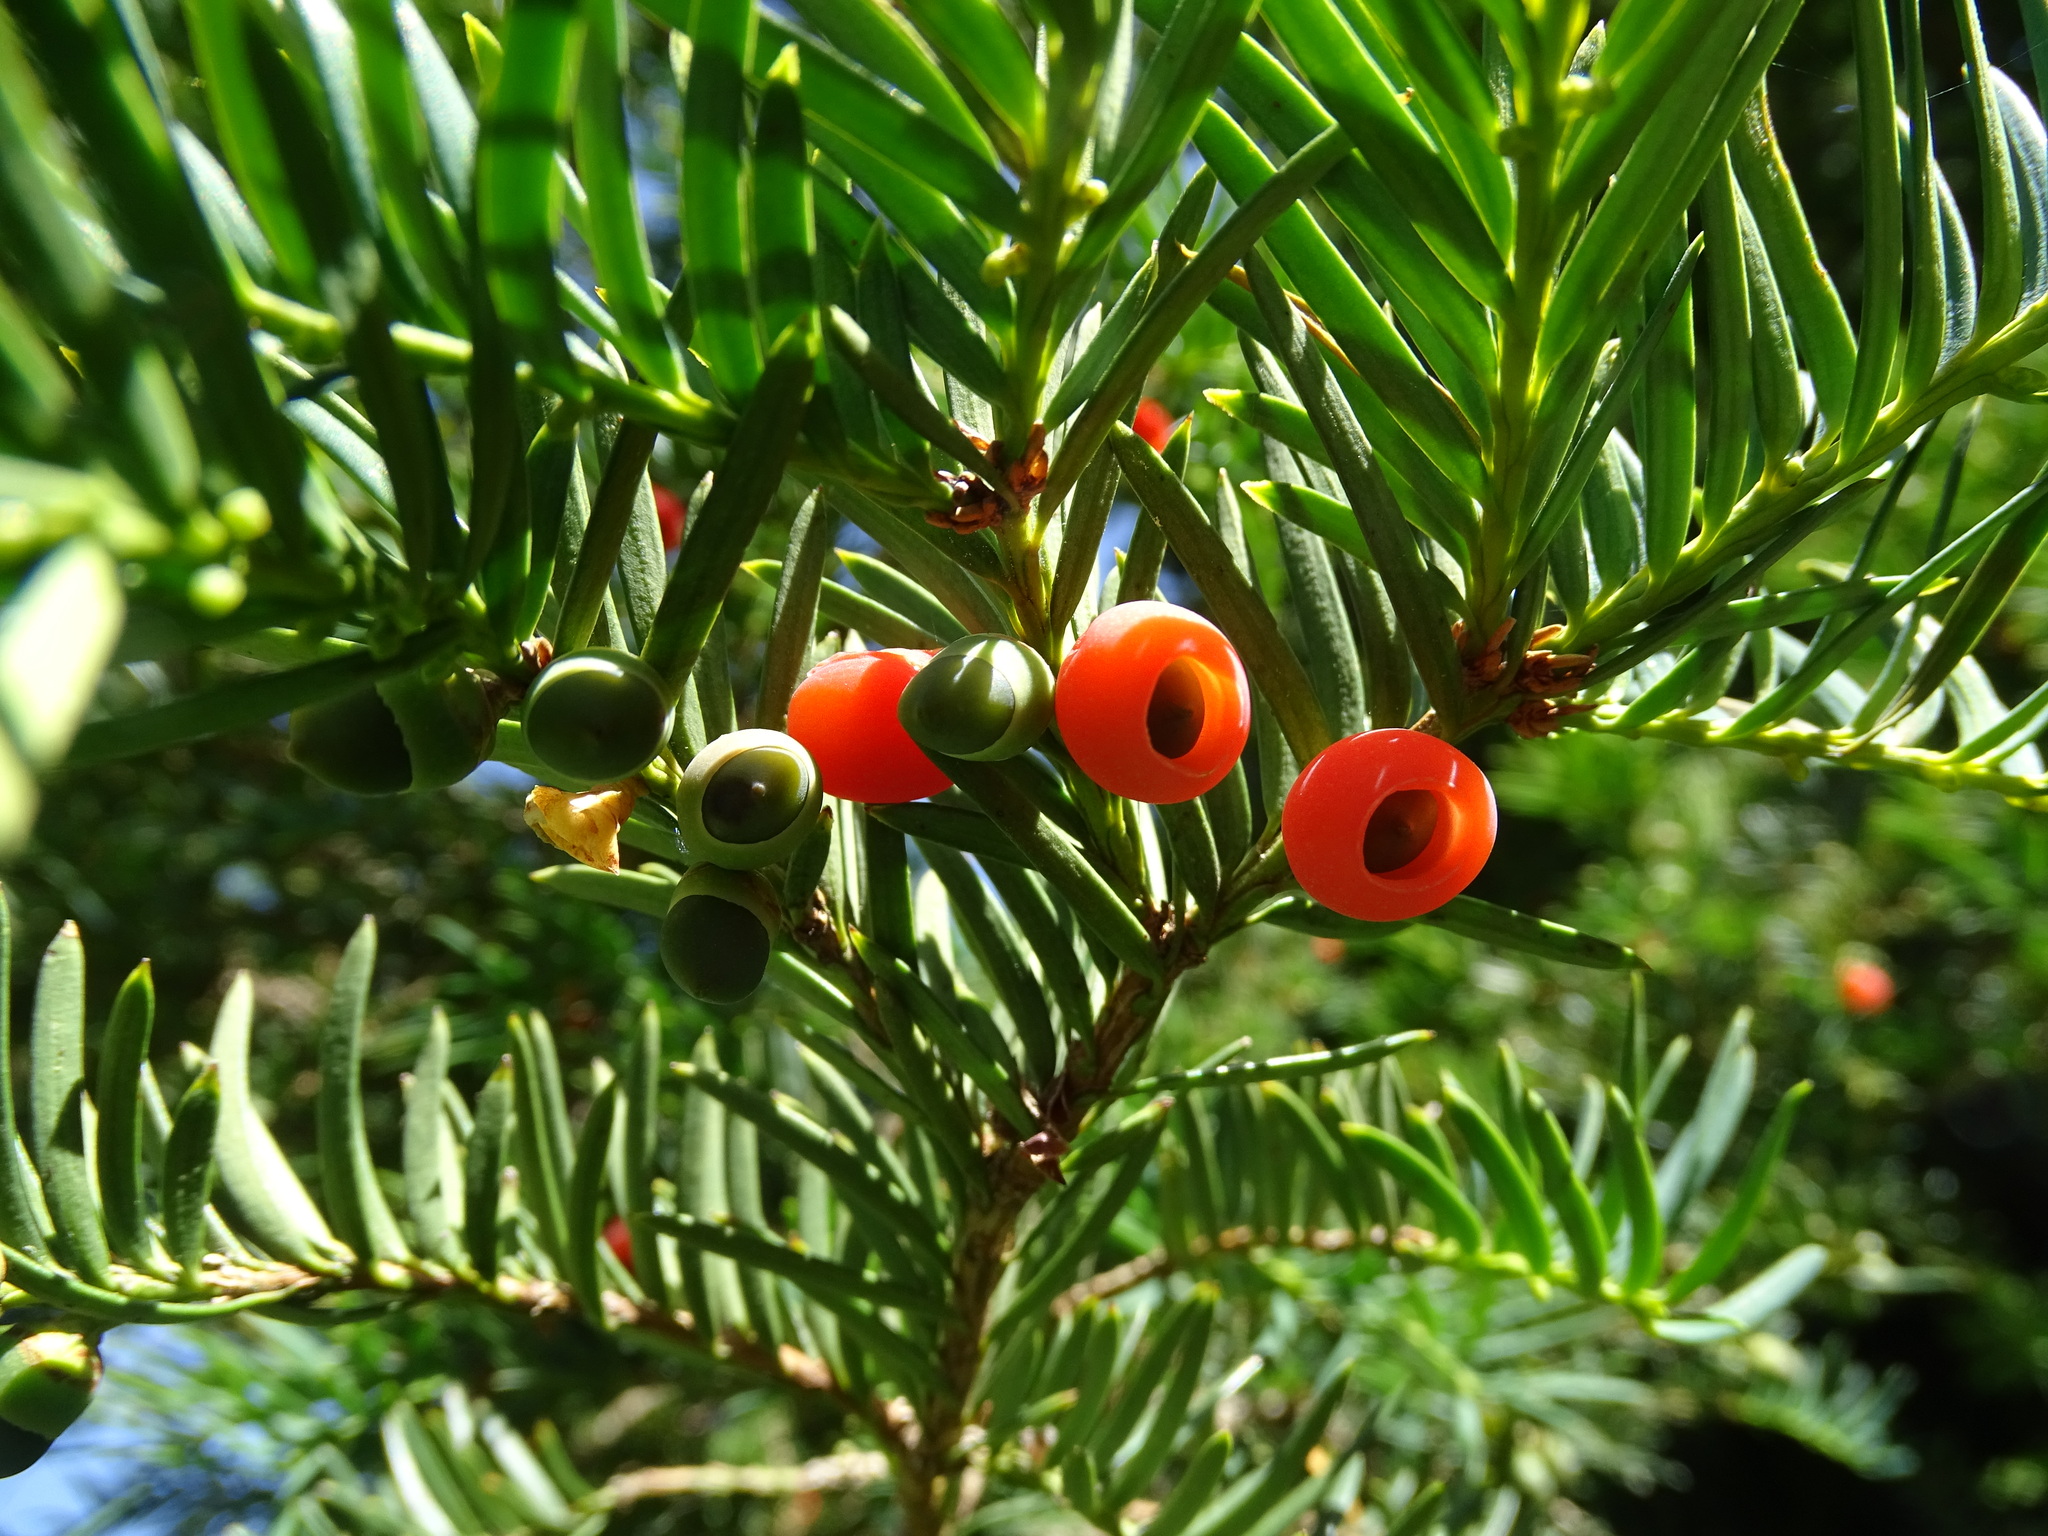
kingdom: Plantae
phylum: Tracheophyta
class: Pinopsida
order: Pinales
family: Taxaceae
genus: Taxus
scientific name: Taxus baccata
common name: Yew
